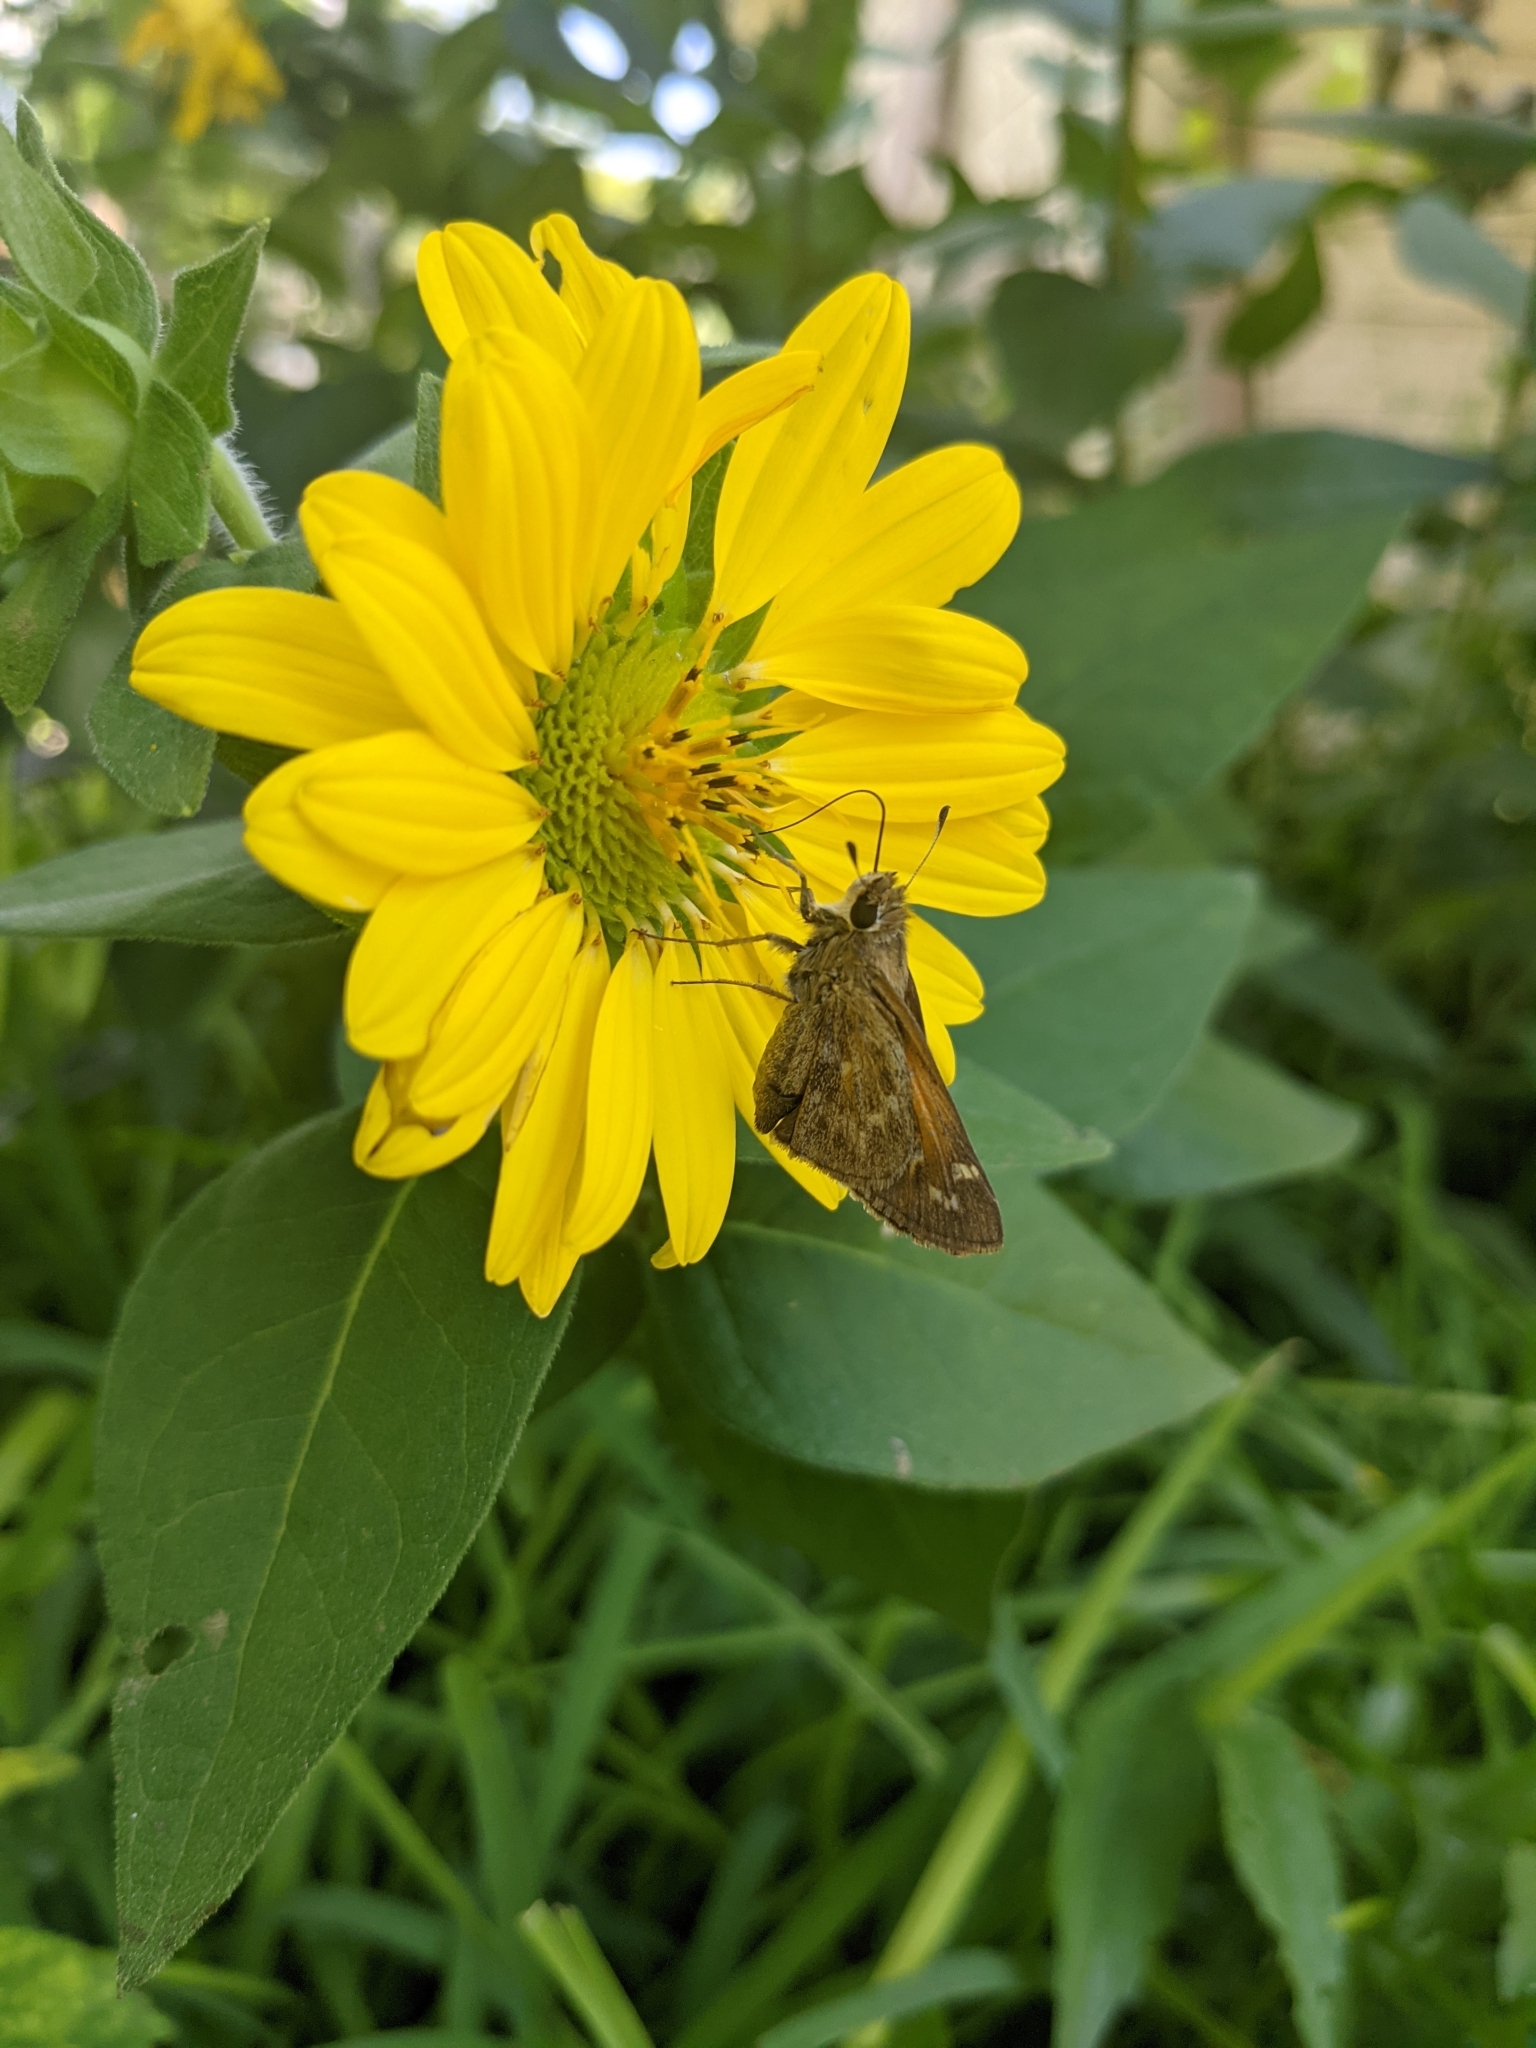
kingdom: Animalia
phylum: Arthropoda
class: Insecta
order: Lepidoptera
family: Hesperiidae
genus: Atalopedes
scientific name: Atalopedes
